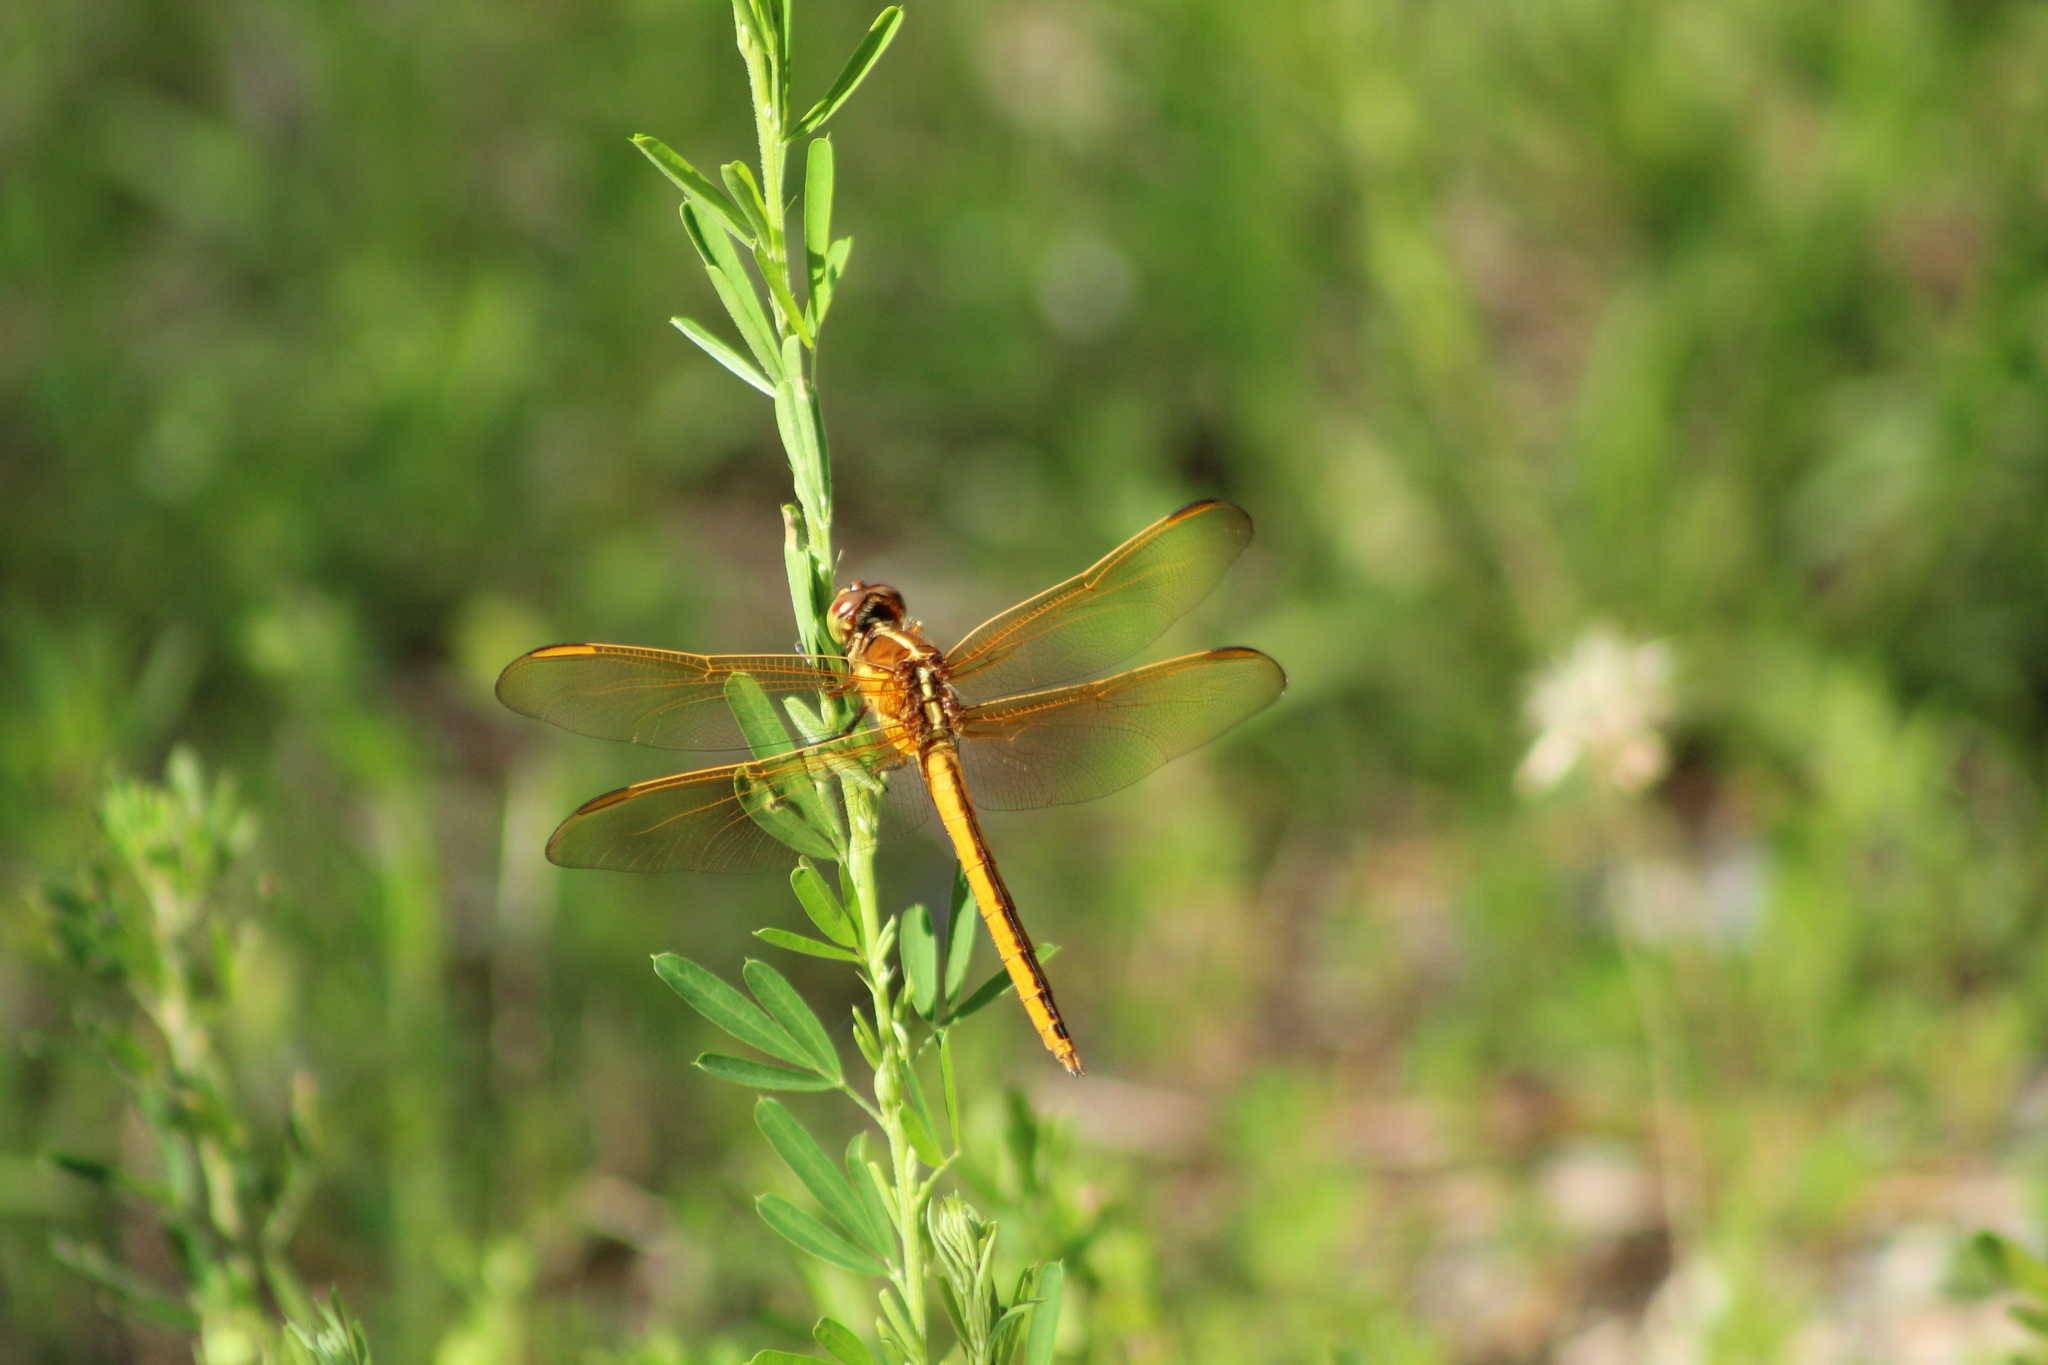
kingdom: Animalia
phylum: Arthropoda
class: Insecta
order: Odonata
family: Libellulidae
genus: Libellula
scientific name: Libellula auripennis
